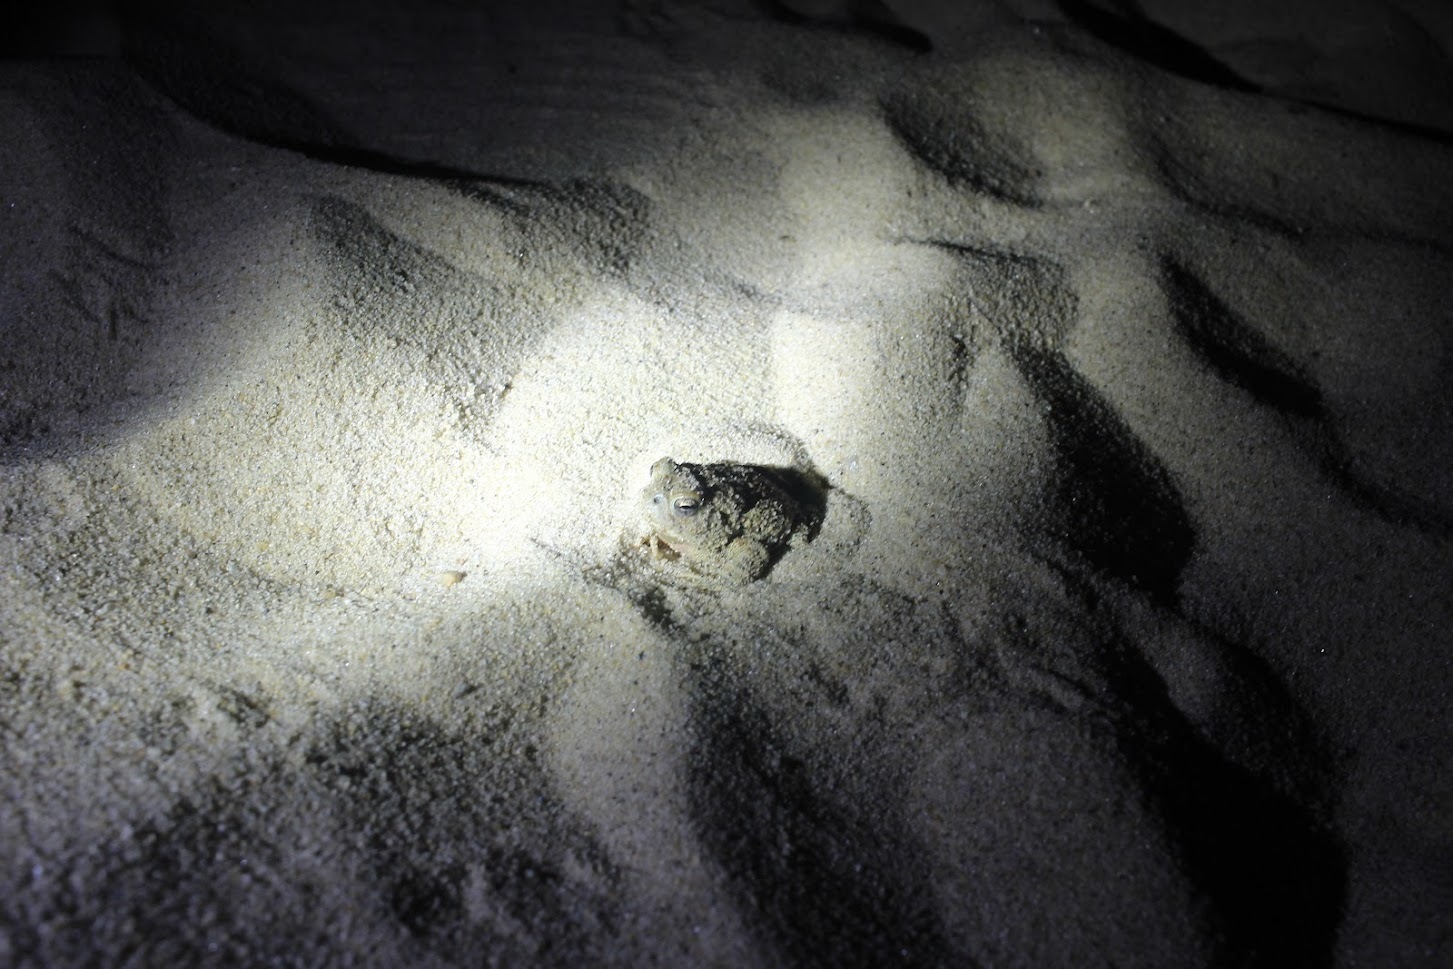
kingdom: Animalia
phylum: Chordata
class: Amphibia
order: Anura
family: Bufonidae
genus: Anaxyrus
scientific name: Anaxyrus fowleri
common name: Fowler's toad
